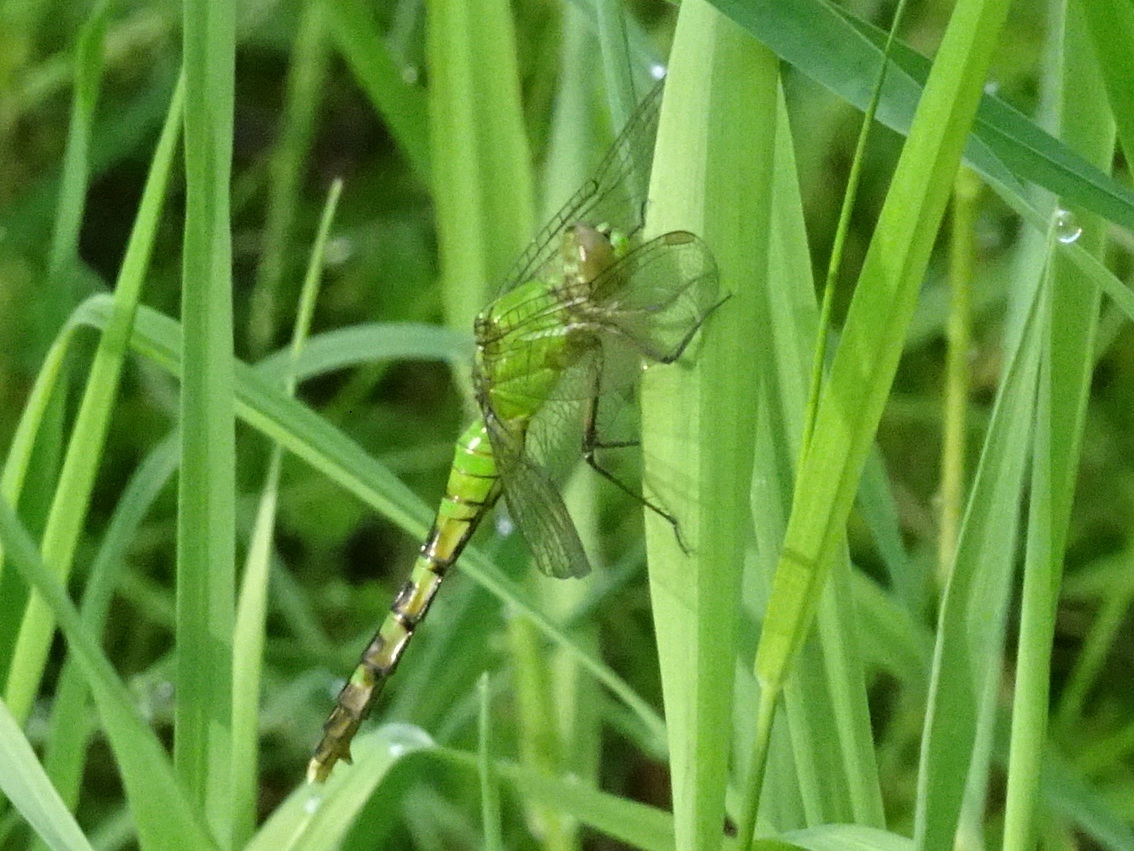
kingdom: Animalia
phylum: Arthropoda
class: Insecta
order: Odonata
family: Libellulidae
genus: Erythemis
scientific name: Erythemis simplicicollis
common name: Eastern pondhawk
